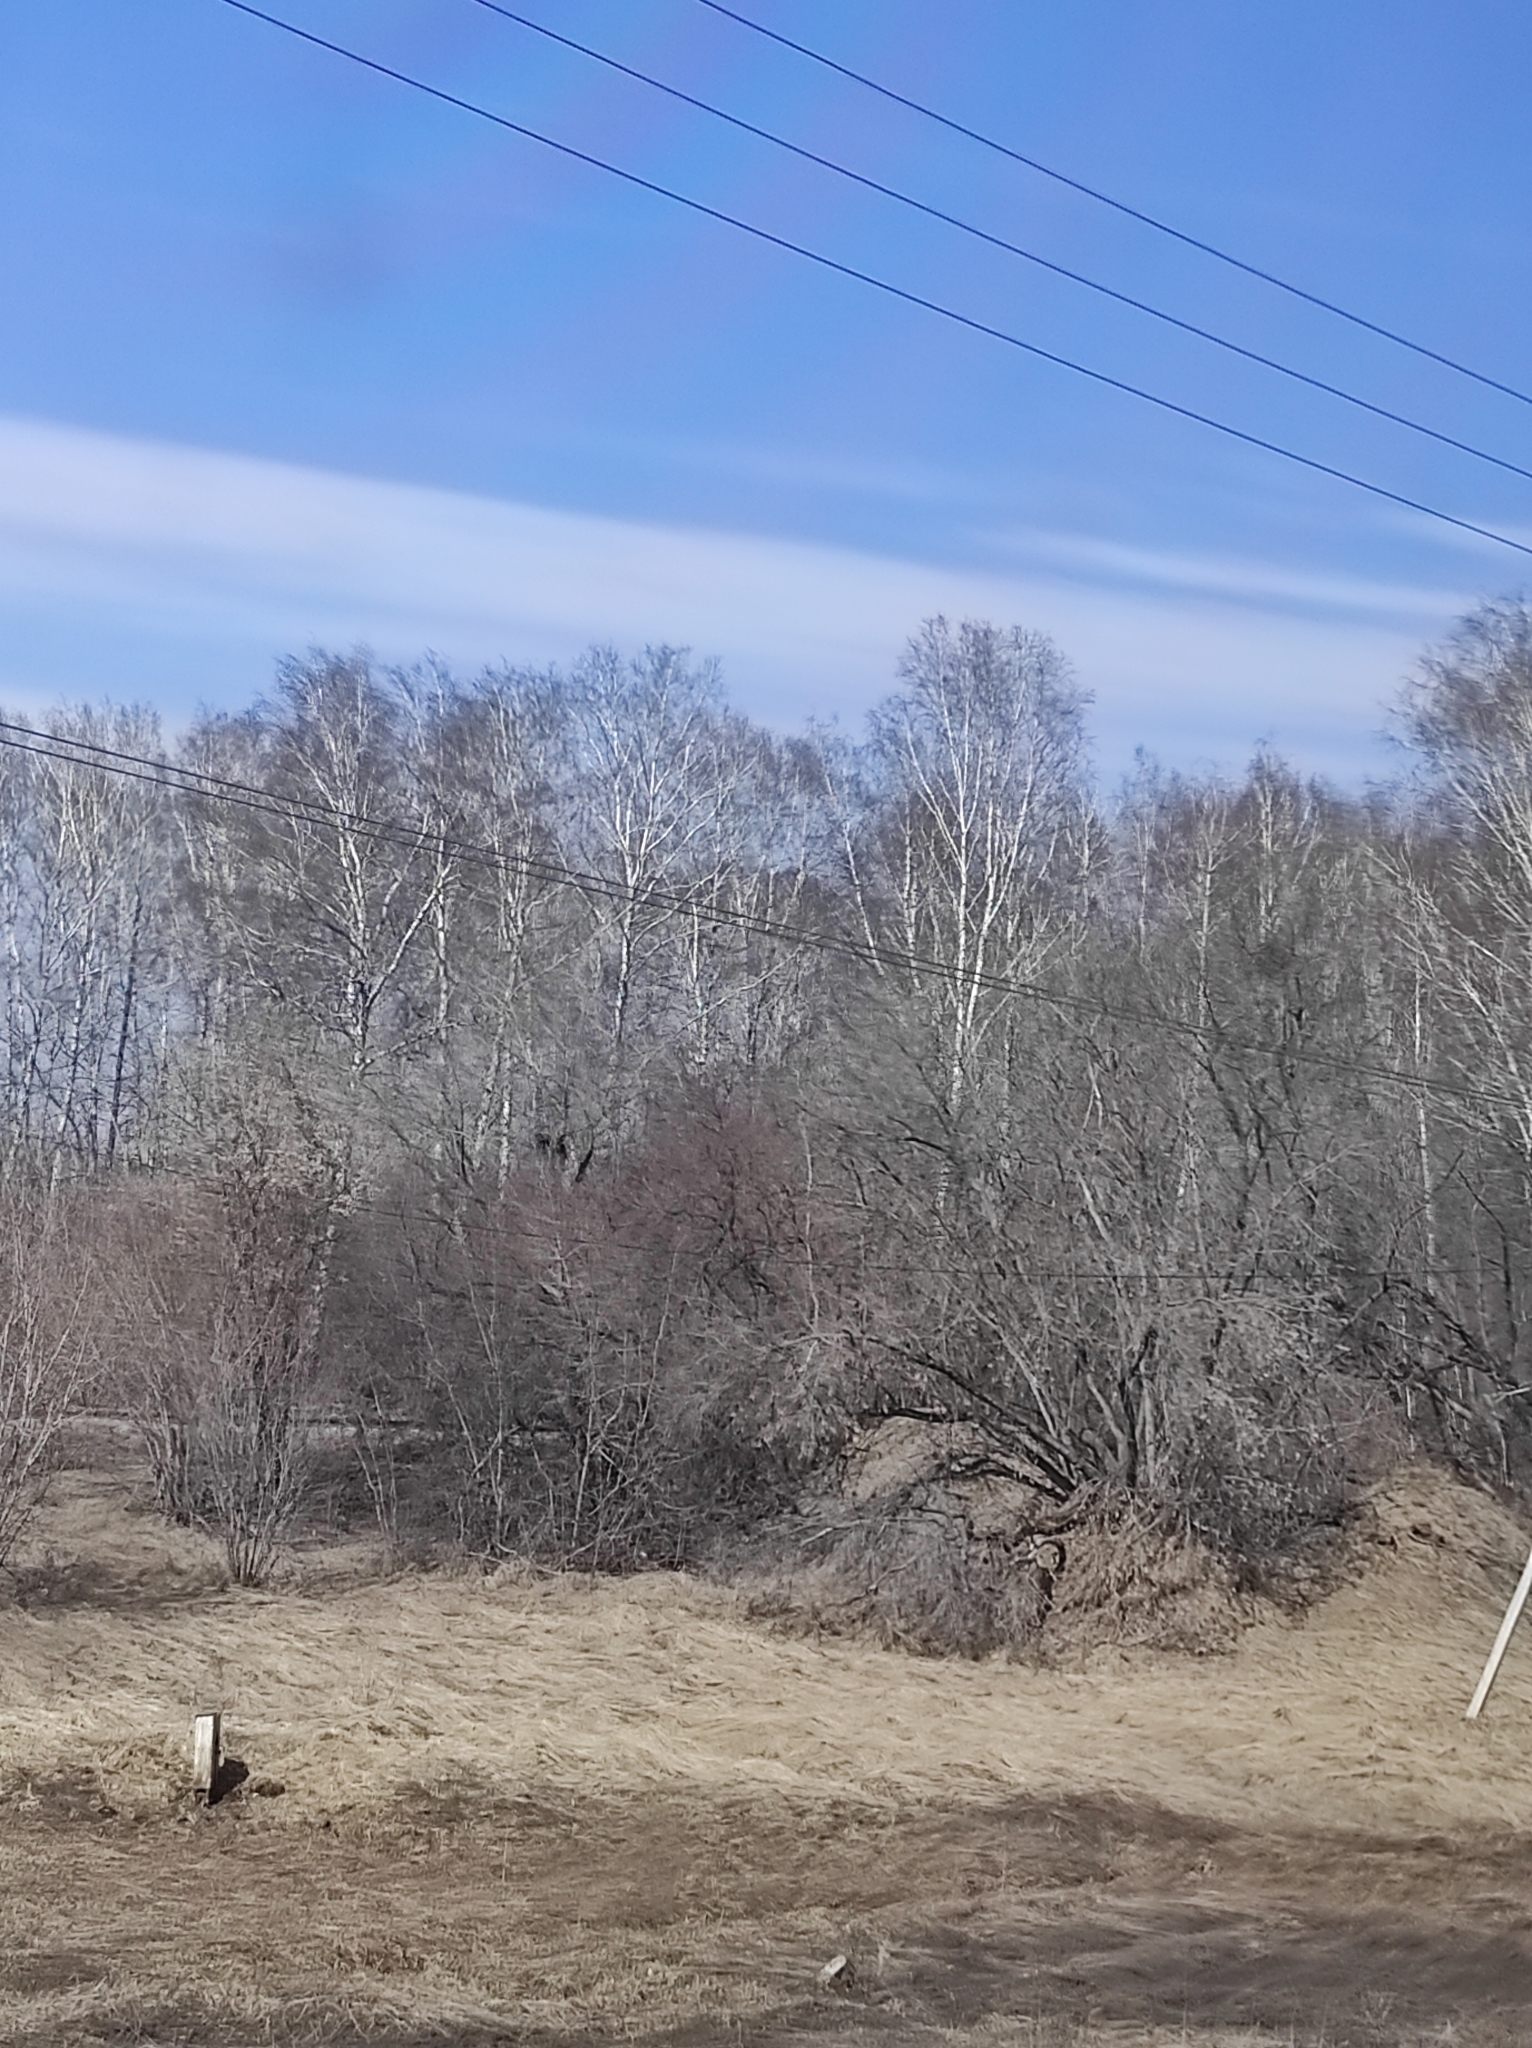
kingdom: Animalia
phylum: Chordata
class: Aves
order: Passeriformes
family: Corvidae
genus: Corvus
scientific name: Corvus frugilegus
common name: Rook
